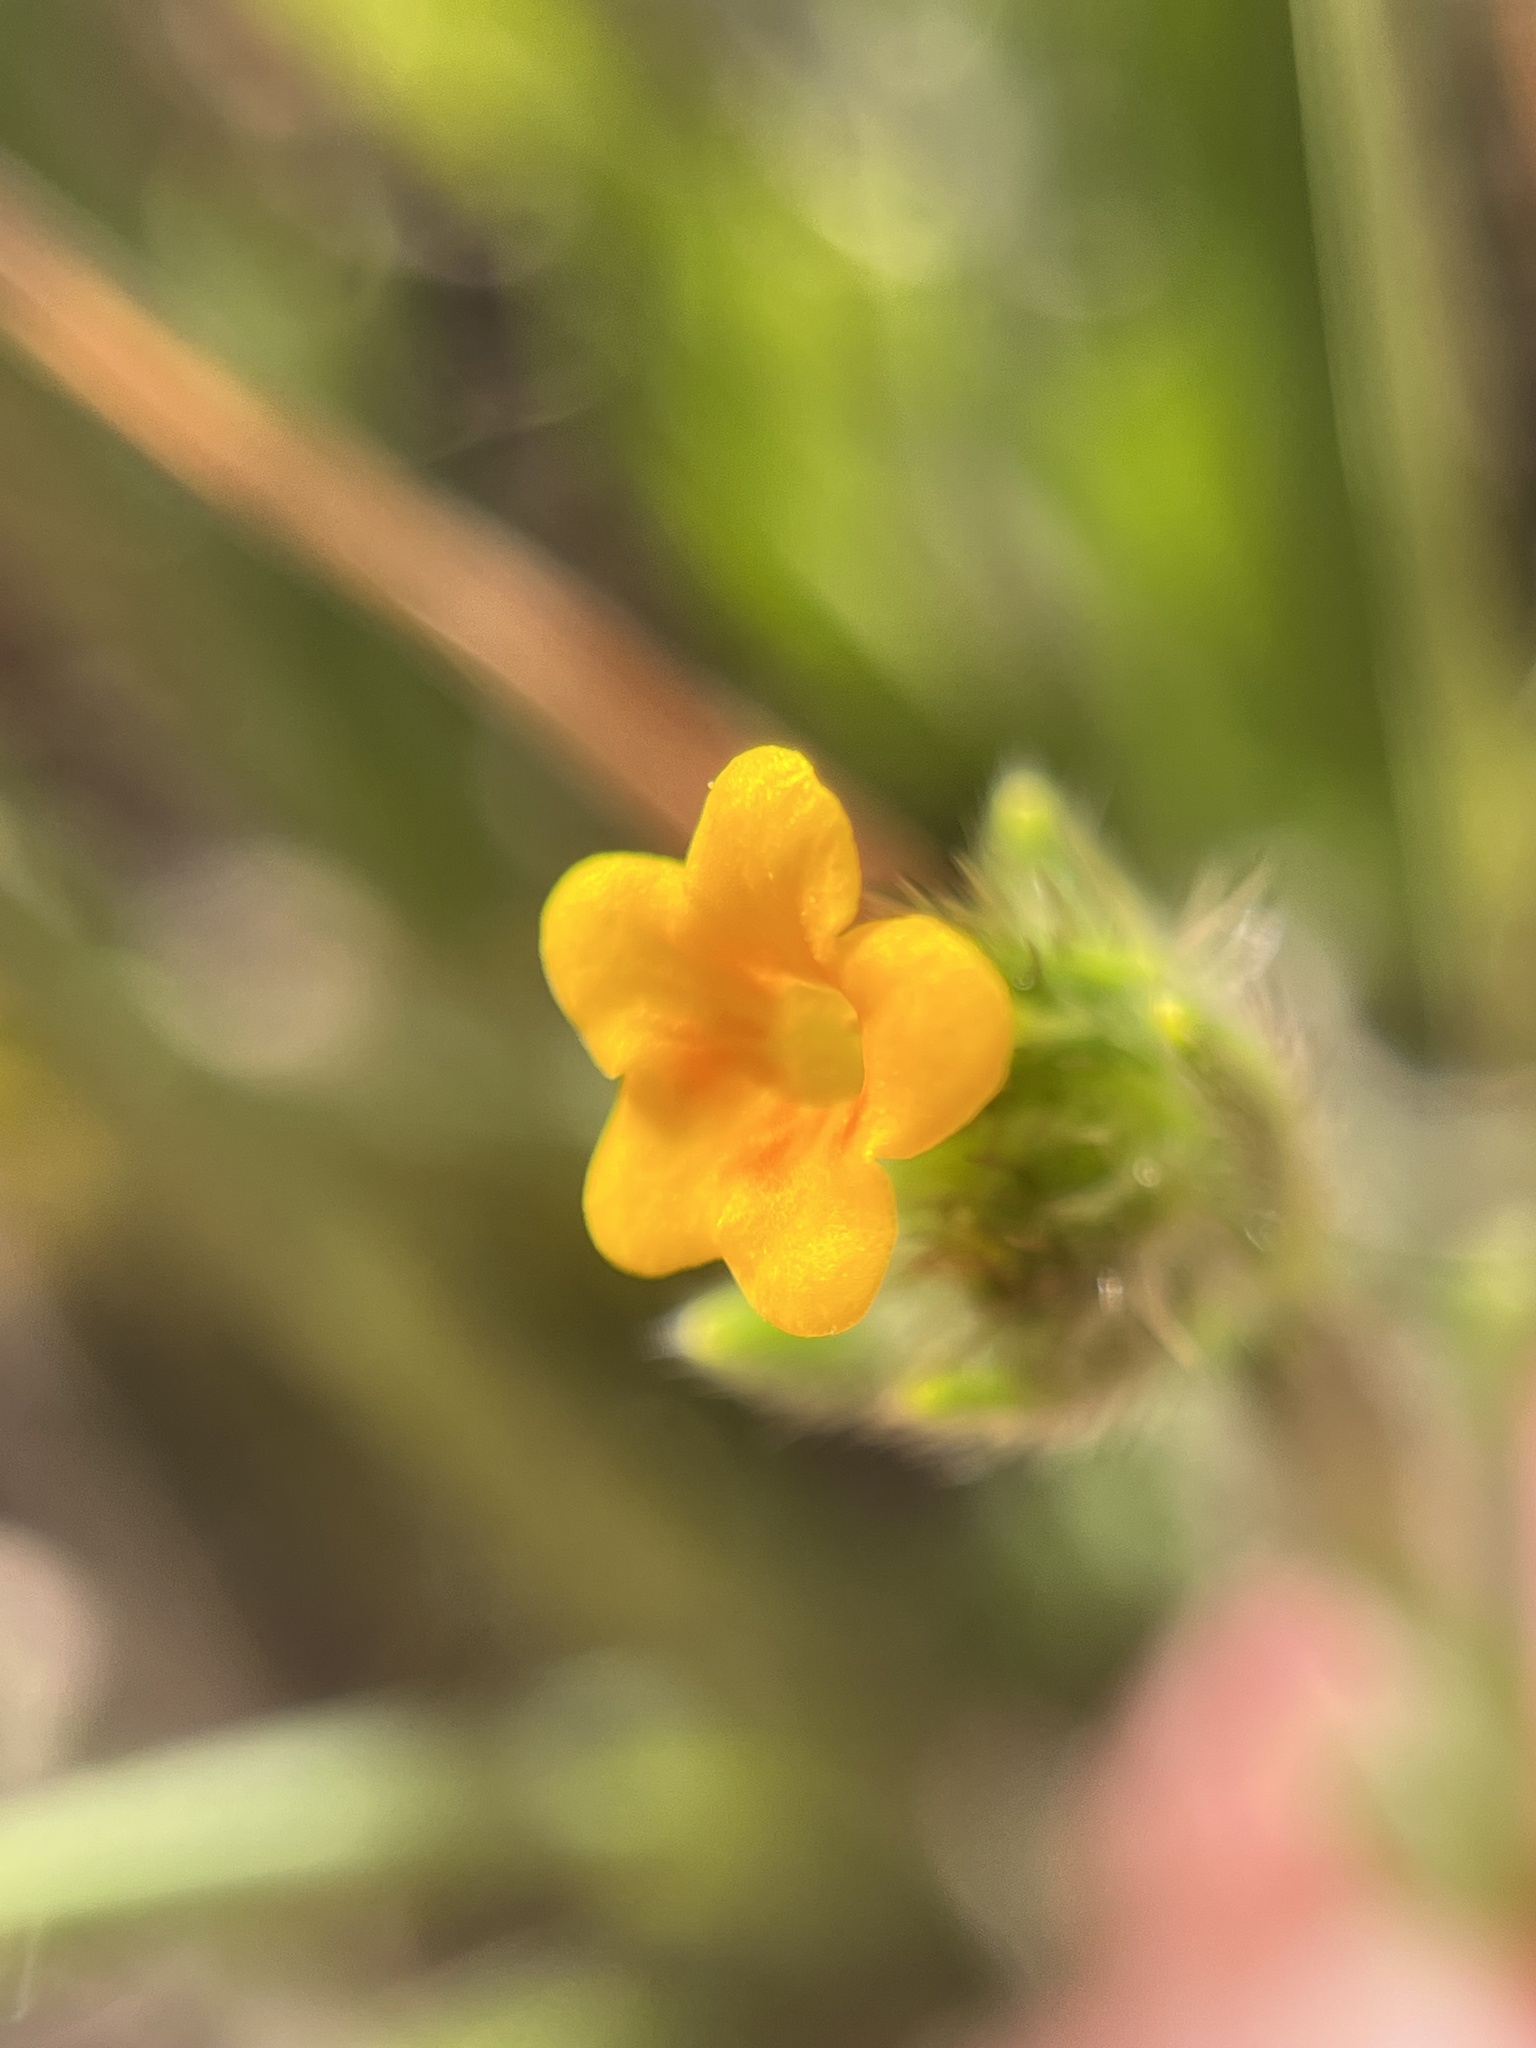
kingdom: Plantae
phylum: Tracheophyta
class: Magnoliopsida
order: Boraginales
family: Boraginaceae
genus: Amsinckia
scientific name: Amsinckia menziesii
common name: Menzies' fiddleneck
